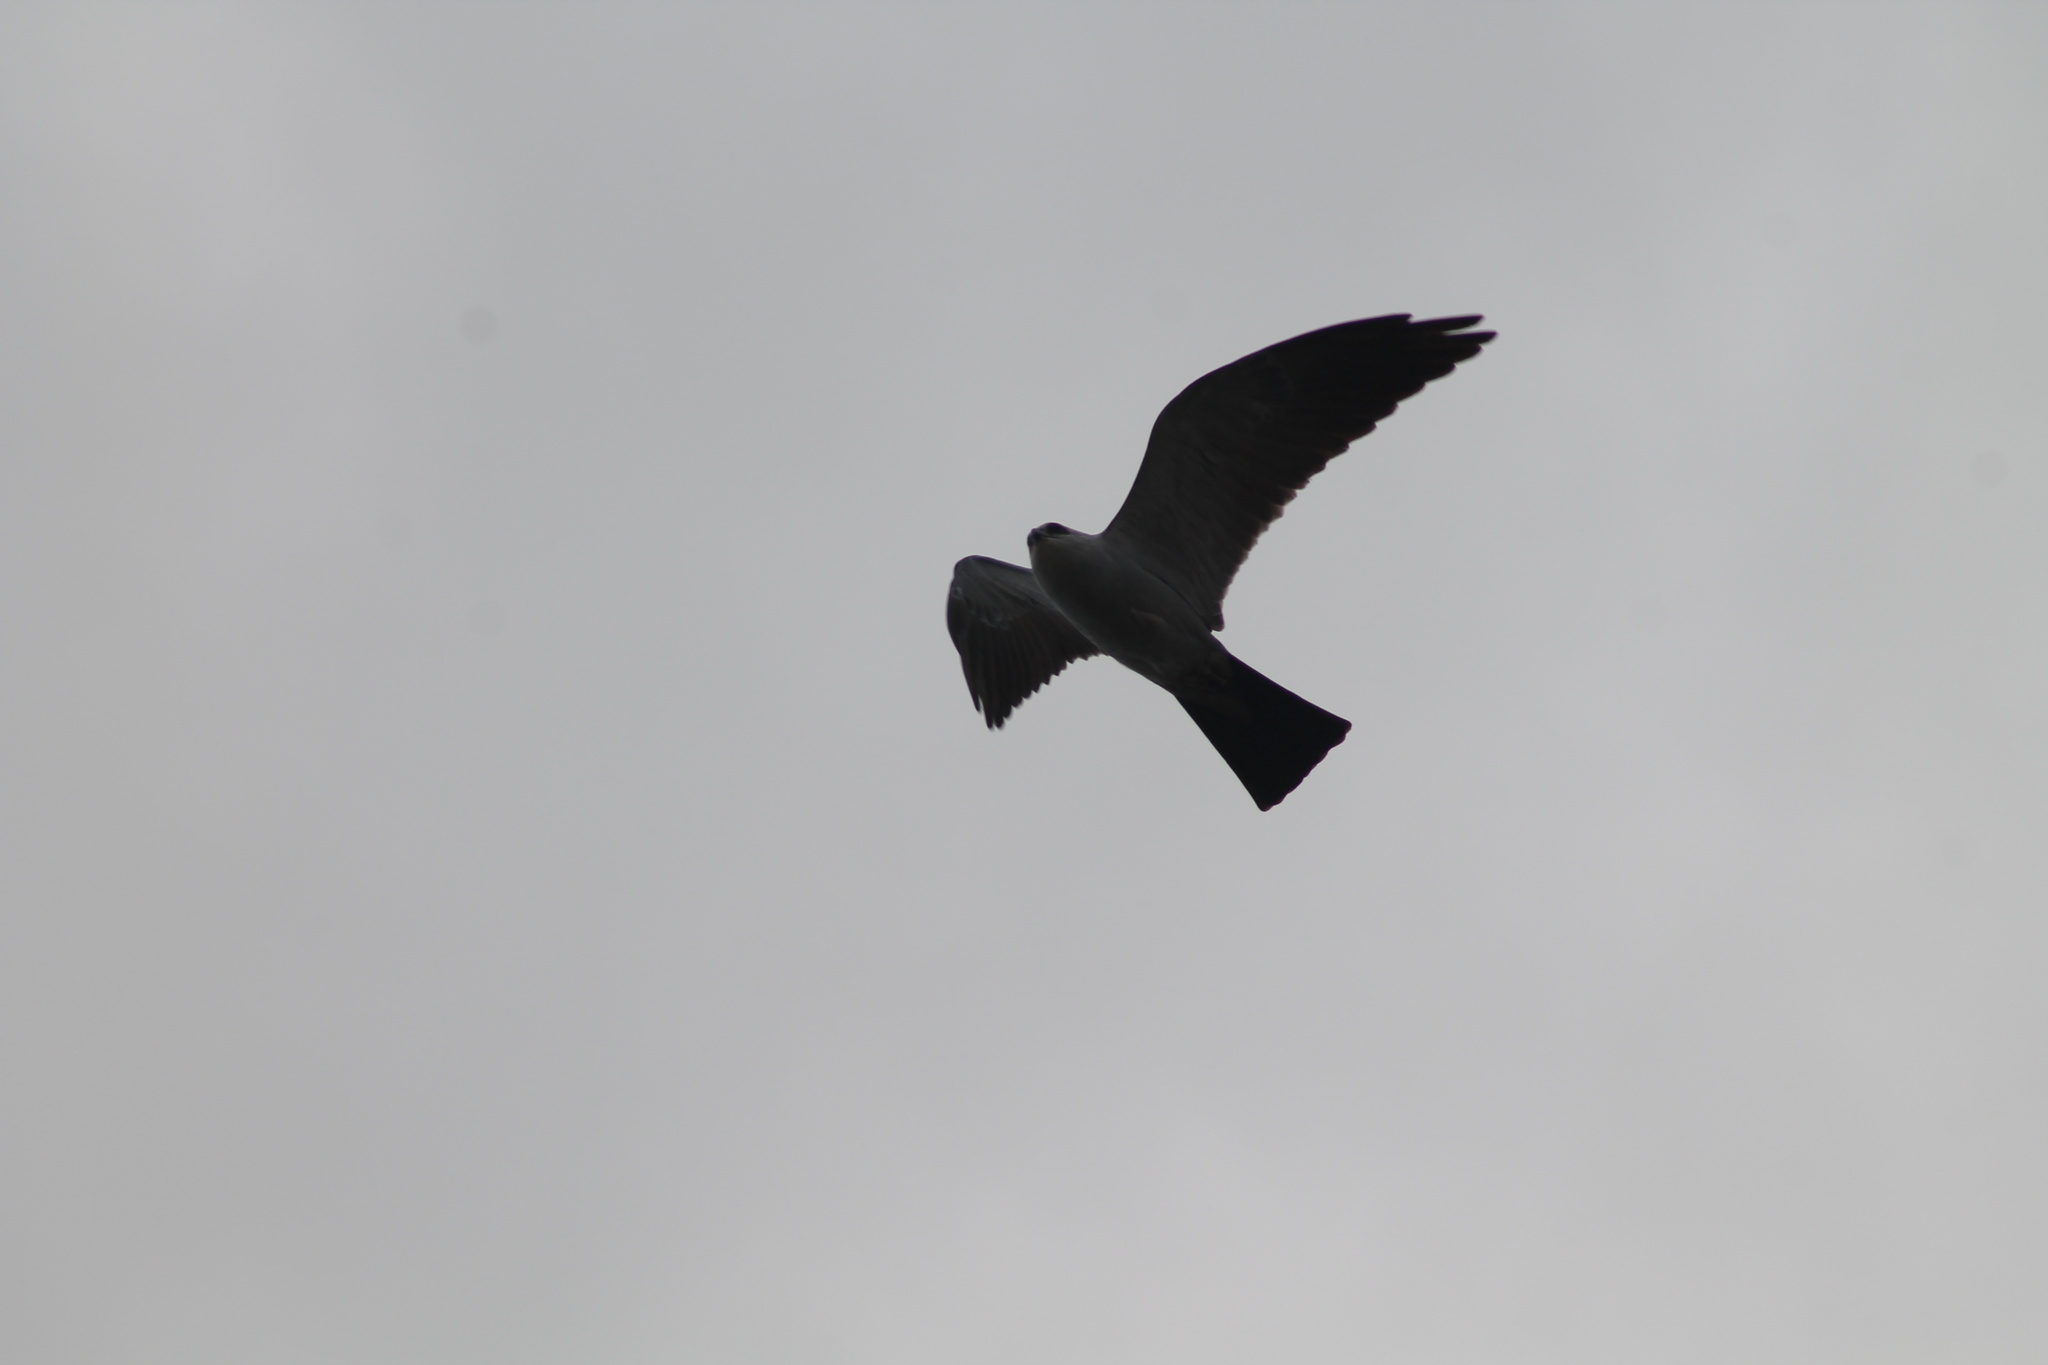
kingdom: Animalia
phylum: Chordata
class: Aves
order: Accipitriformes
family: Accipitridae
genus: Ictinia
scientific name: Ictinia mississippiensis
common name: Mississippi kite
